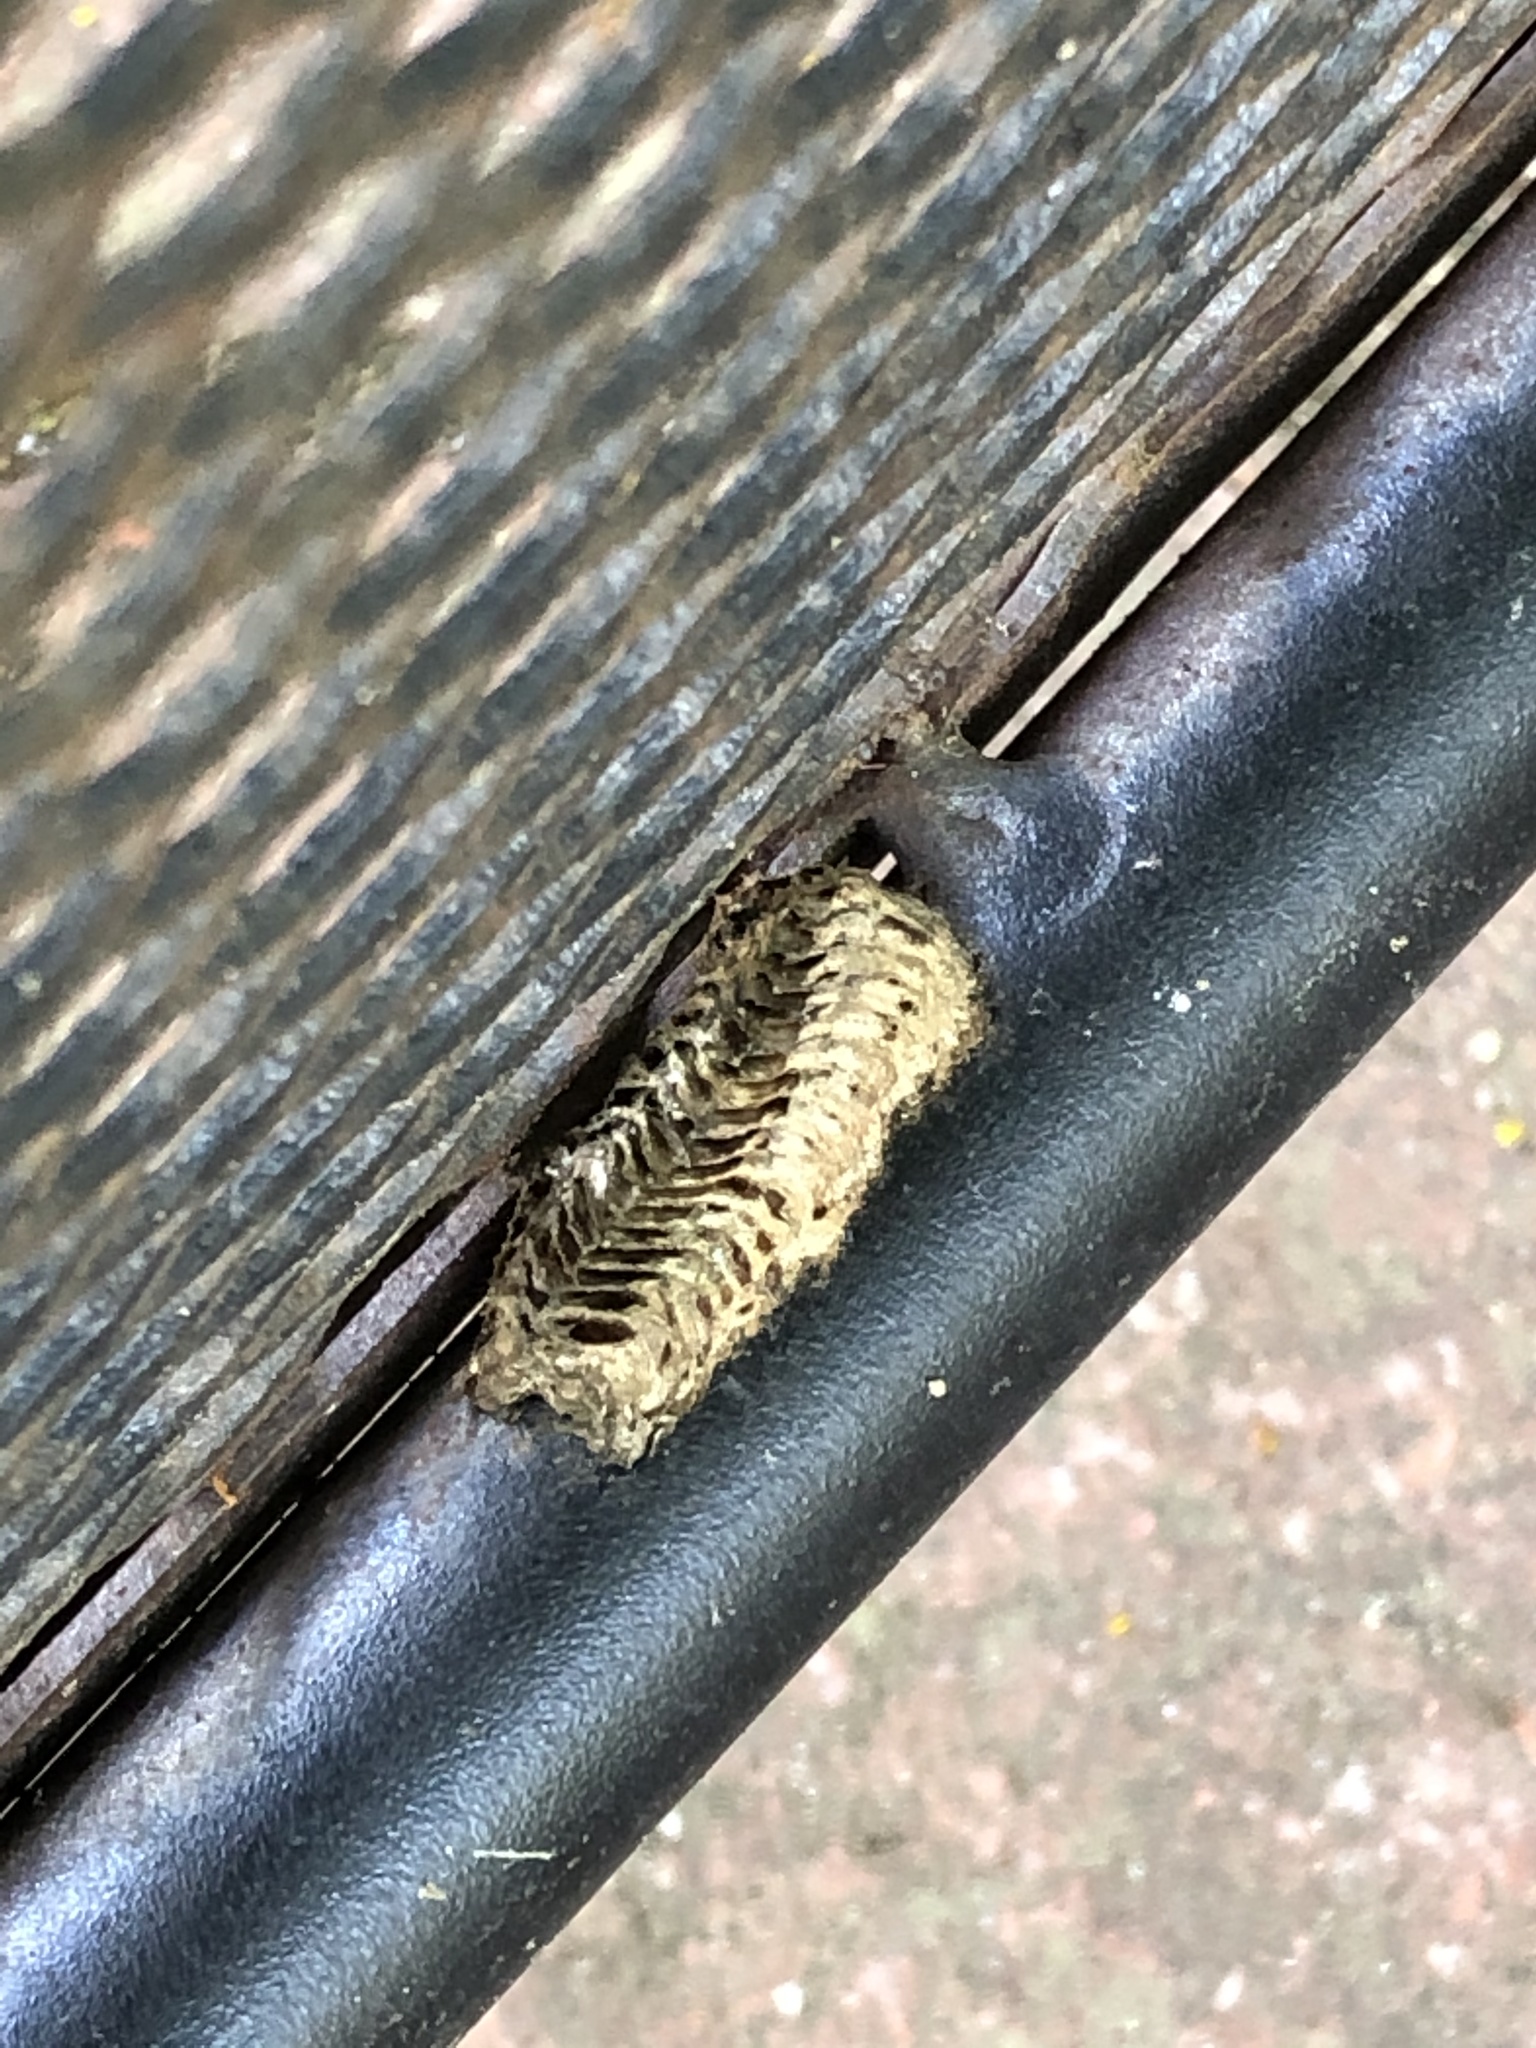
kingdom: Animalia
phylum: Arthropoda
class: Insecta
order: Mantodea
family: Mantidae
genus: Stagmomantis
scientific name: Stagmomantis carolina
